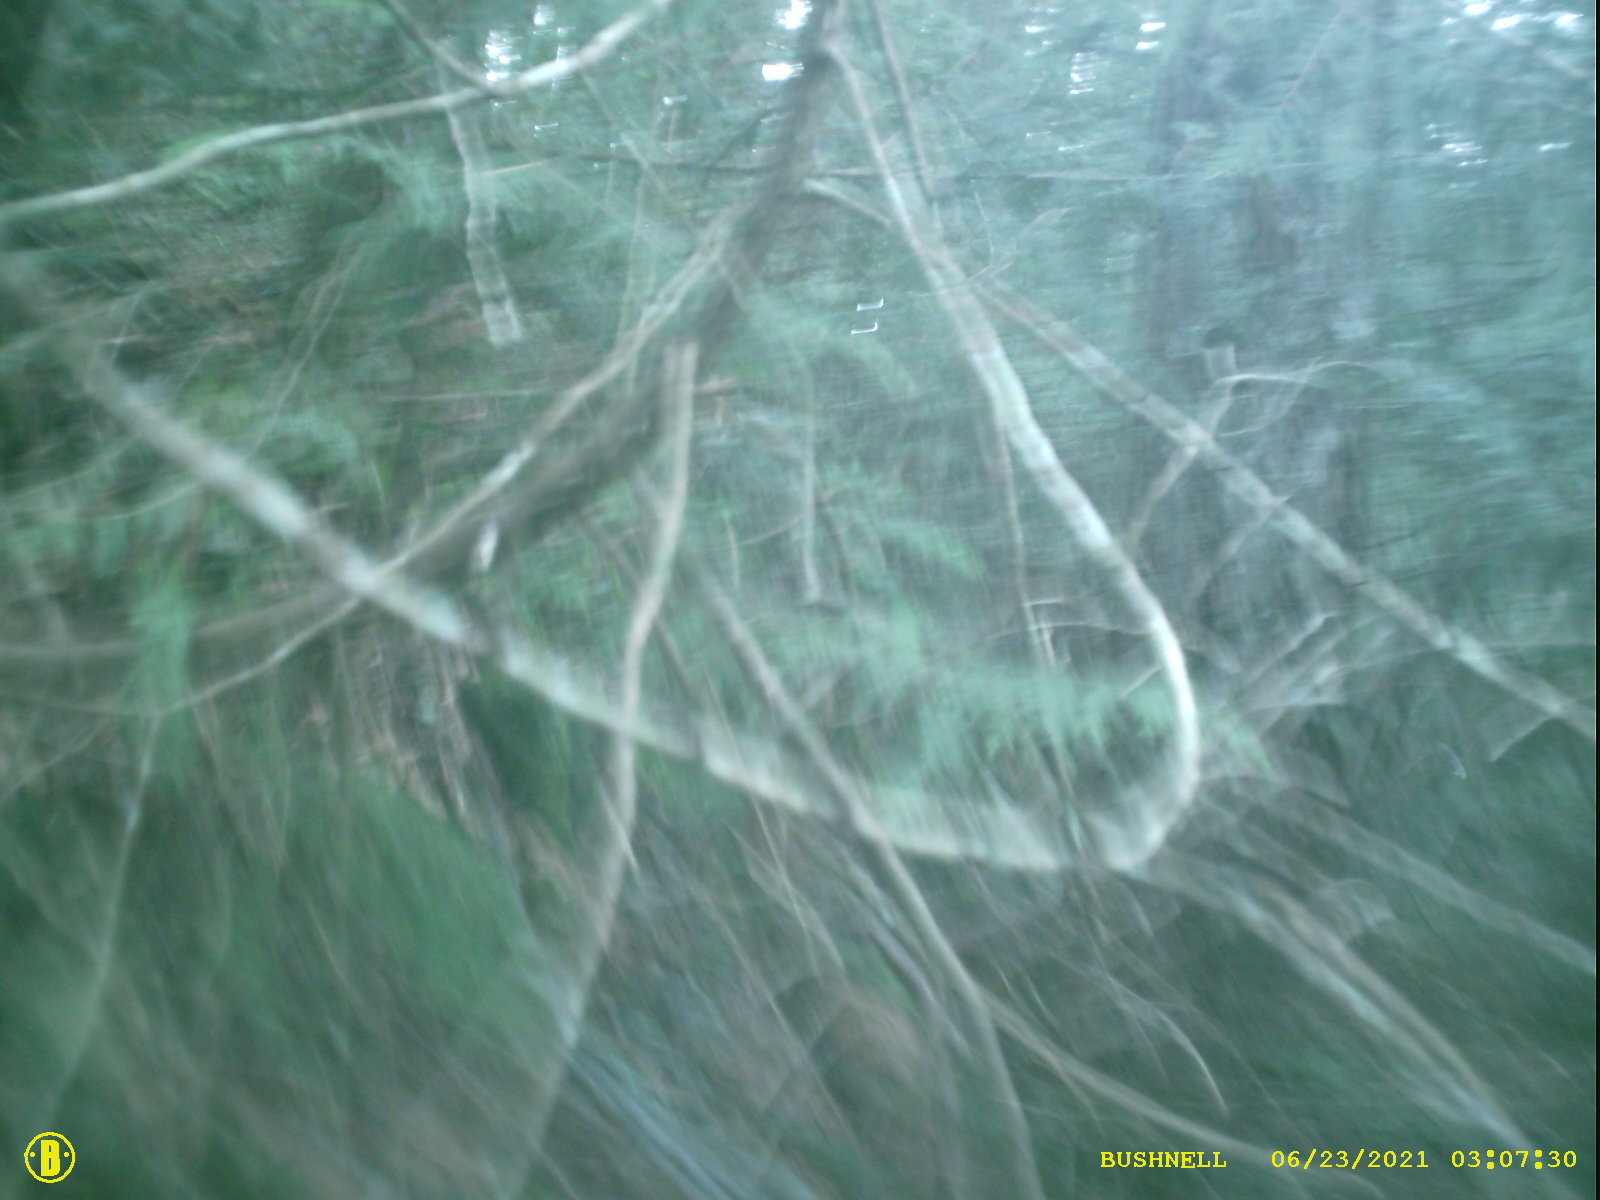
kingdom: Plantae
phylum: Tracheophyta
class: Pinopsida
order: Pinales
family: Cupressaceae
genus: Thuja
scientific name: Thuja plicata
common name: Western red-cedar
